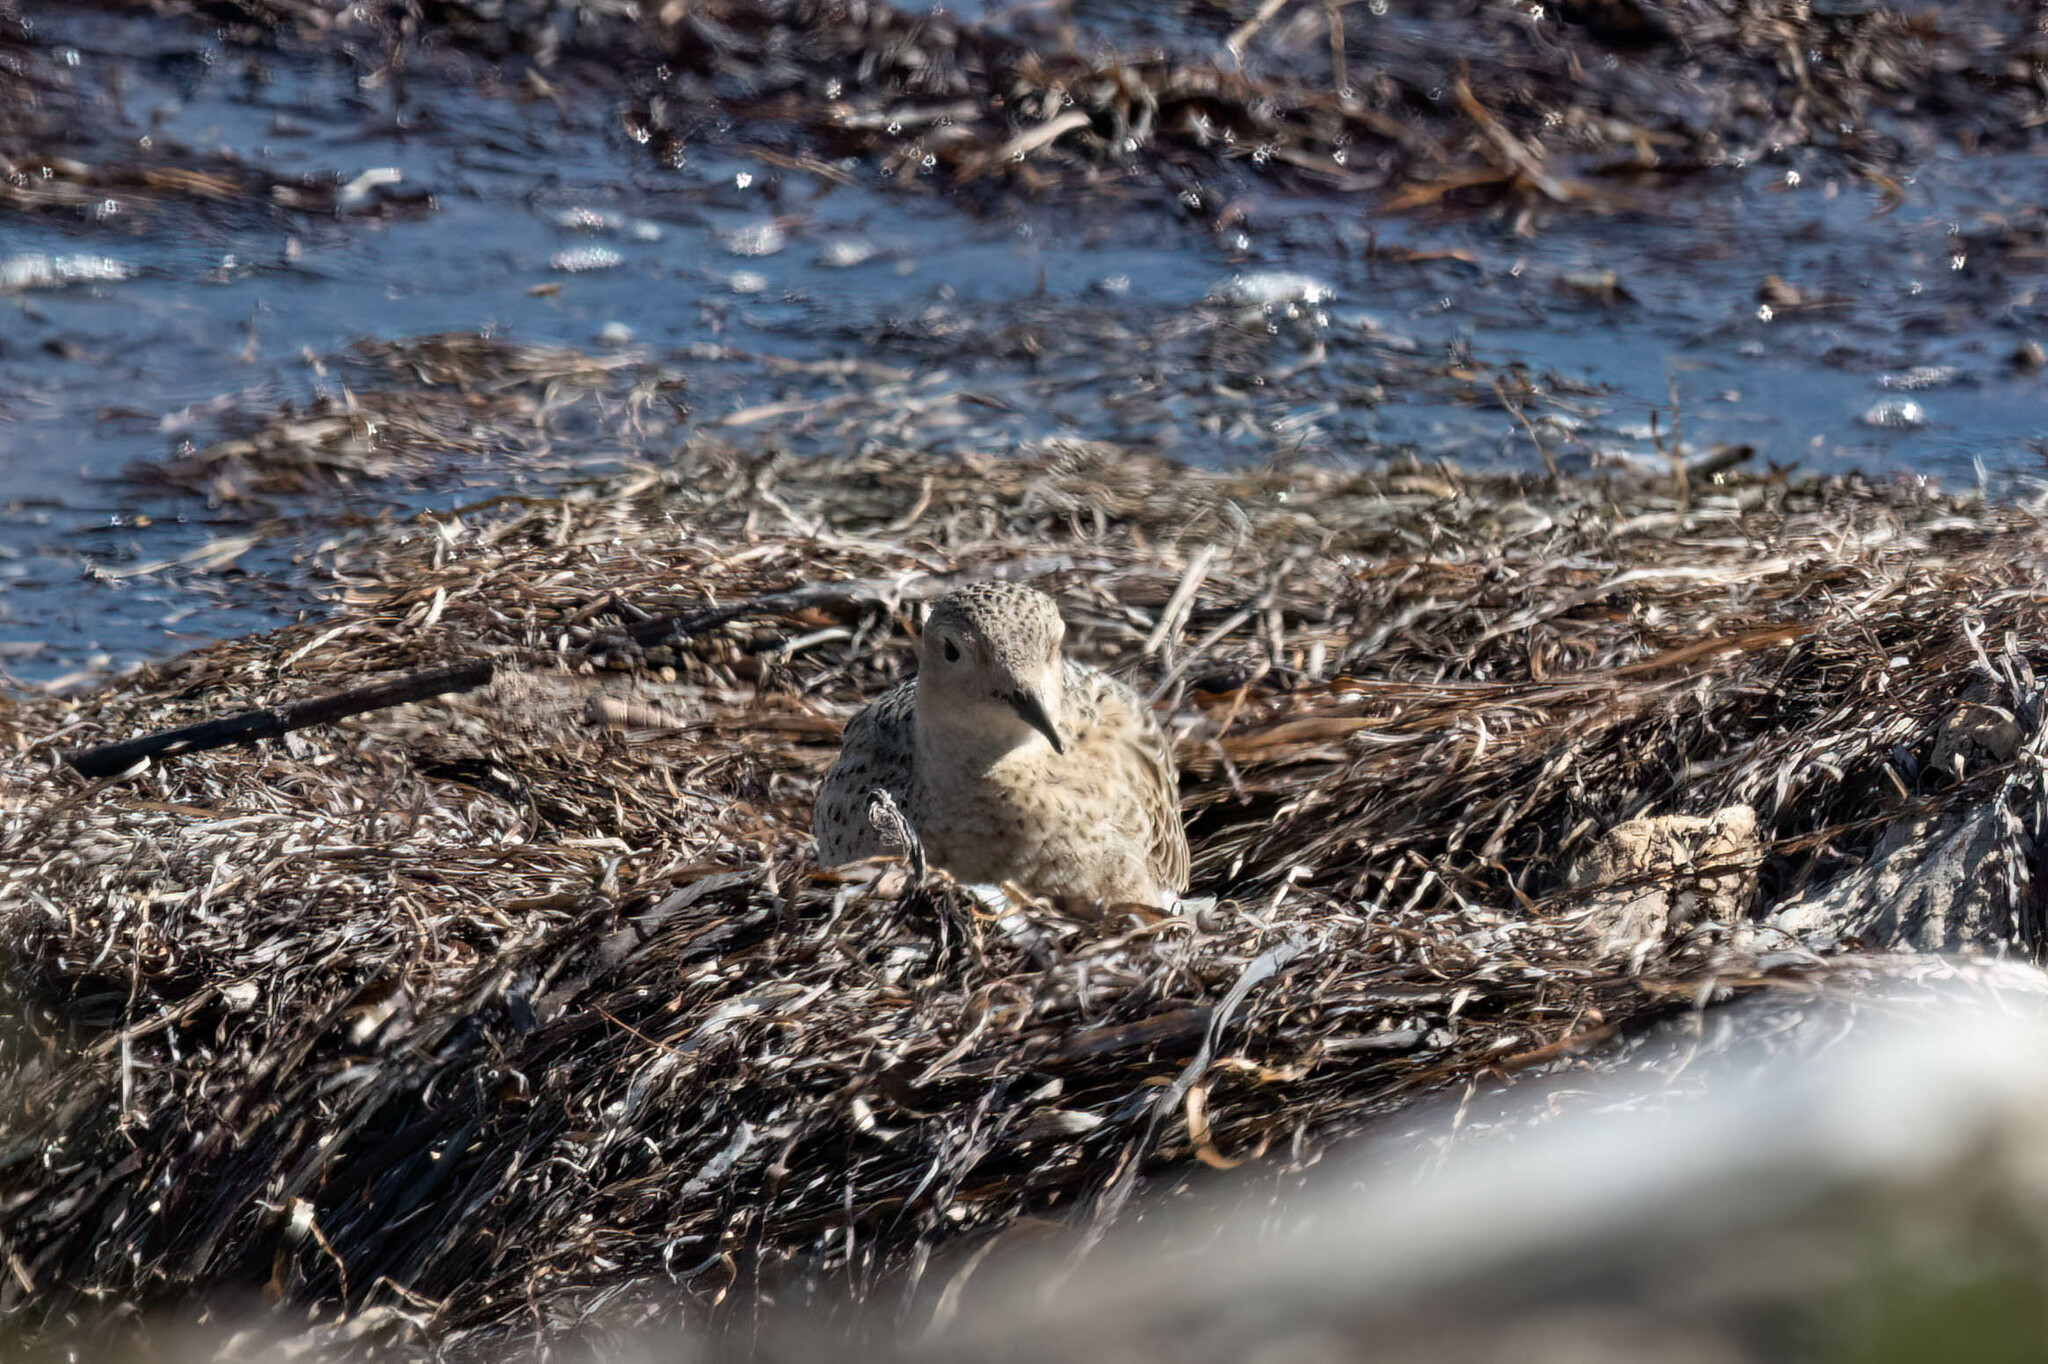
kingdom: Animalia
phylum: Chordata
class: Aves
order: Charadriiformes
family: Scolopacidae
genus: Calidris
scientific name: Calidris subruficollis
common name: Buff-breasted sandpiper
